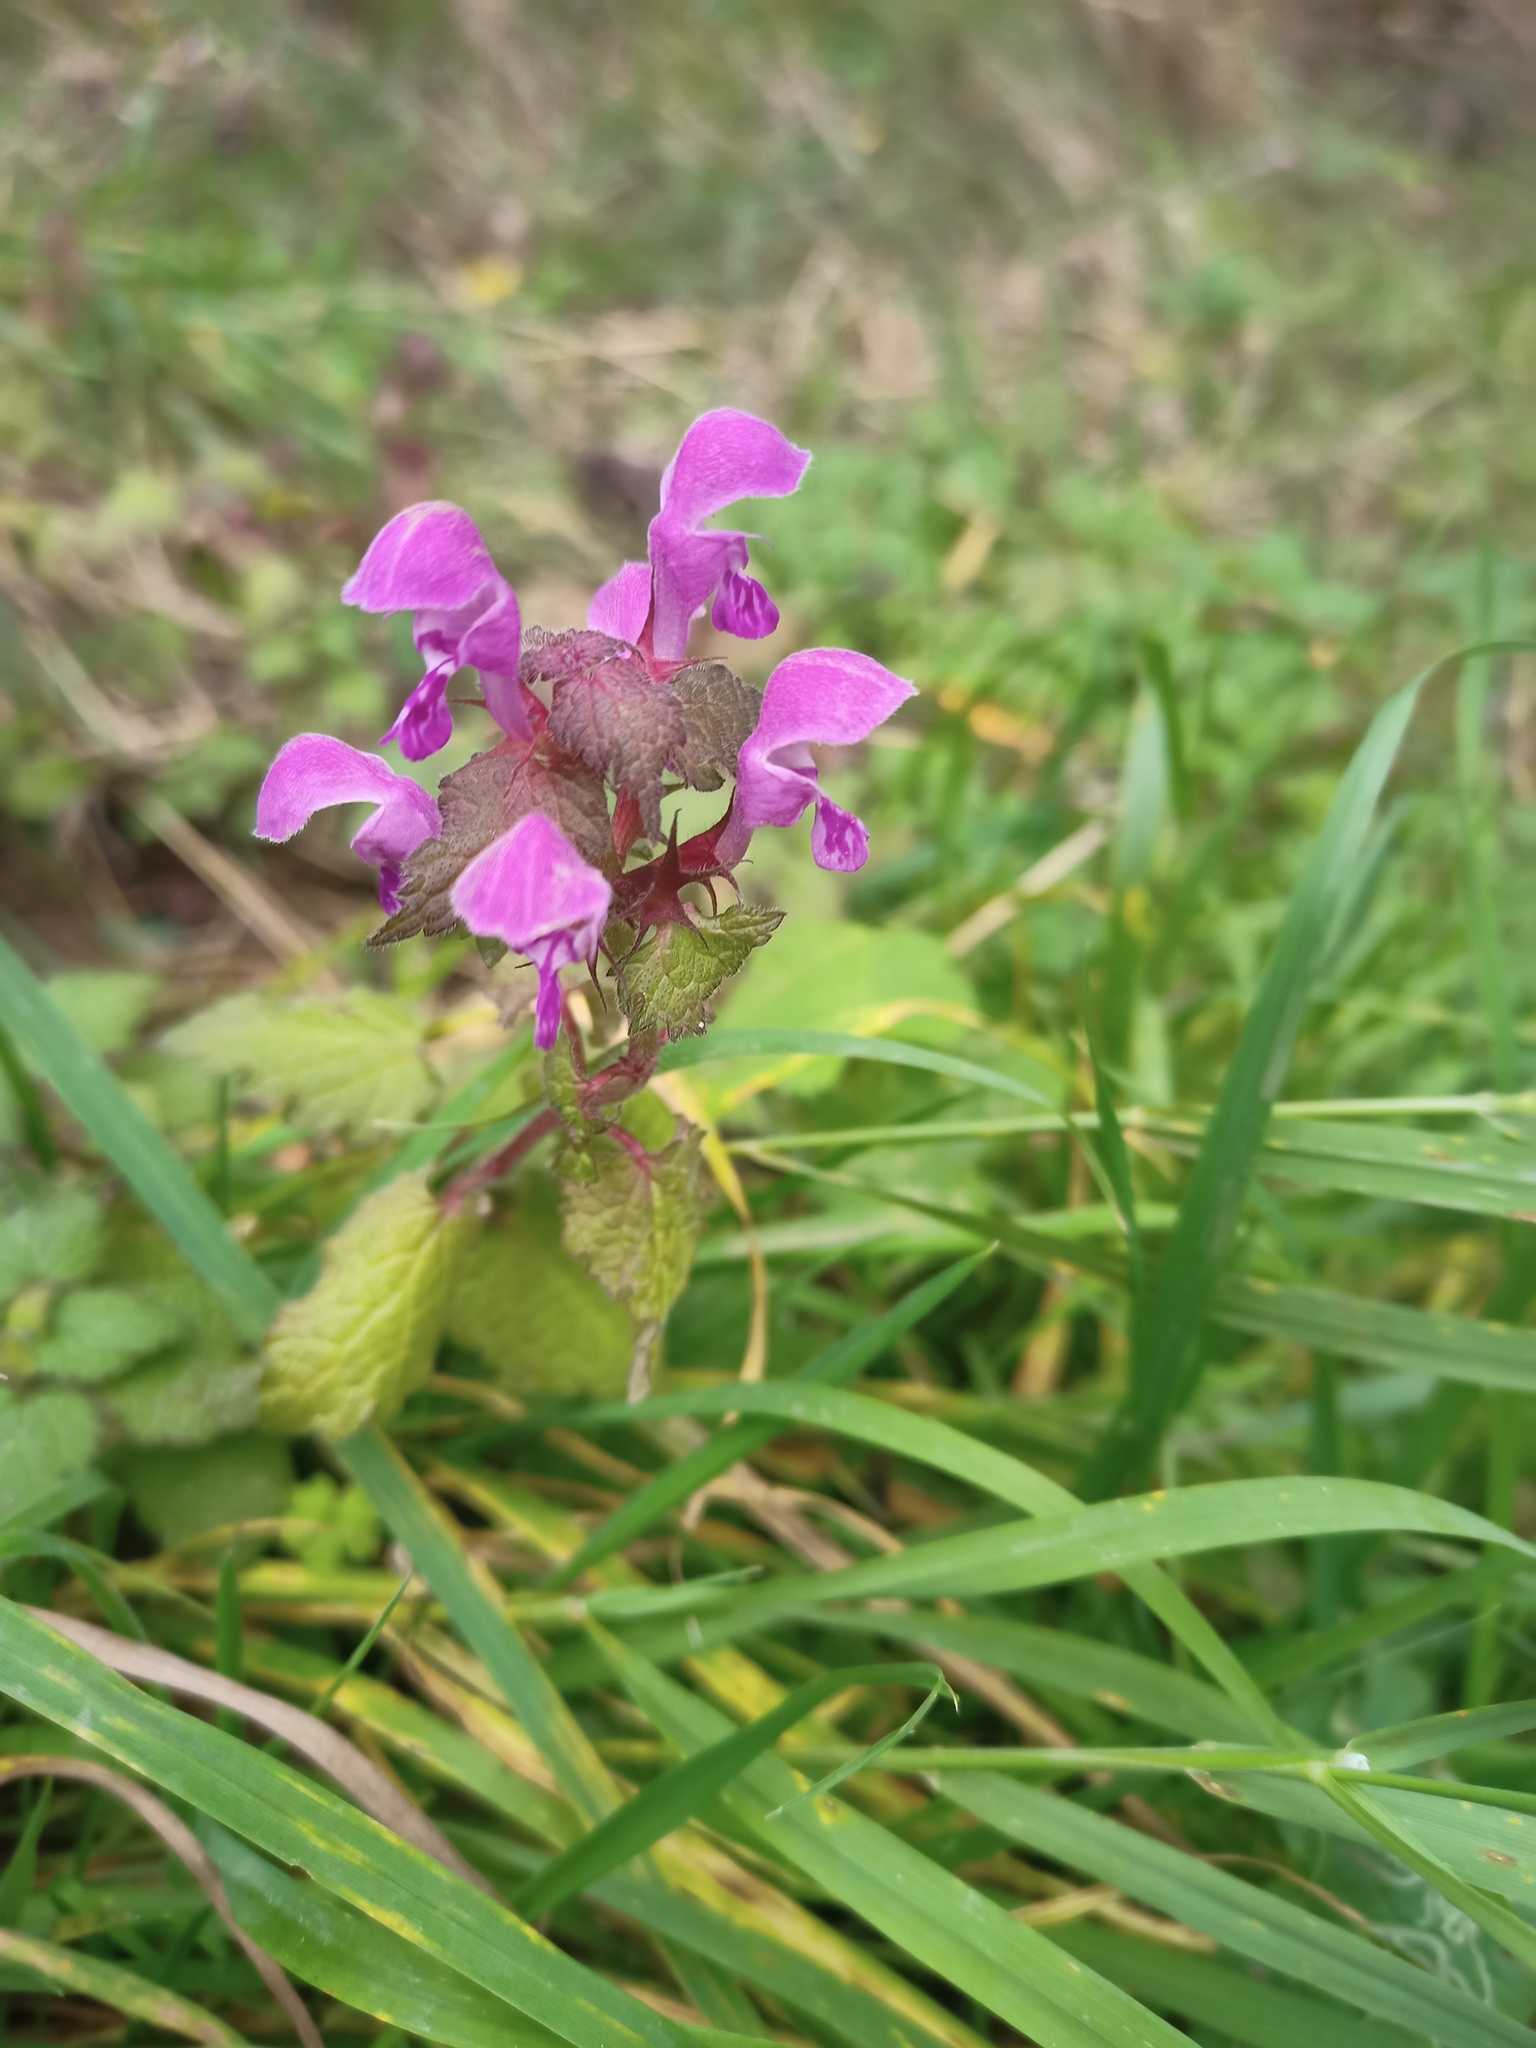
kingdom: Plantae
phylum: Tracheophyta
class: Magnoliopsida
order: Lamiales
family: Lamiaceae
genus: Lamium
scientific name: Lamium purpureum
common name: Red dead-nettle
